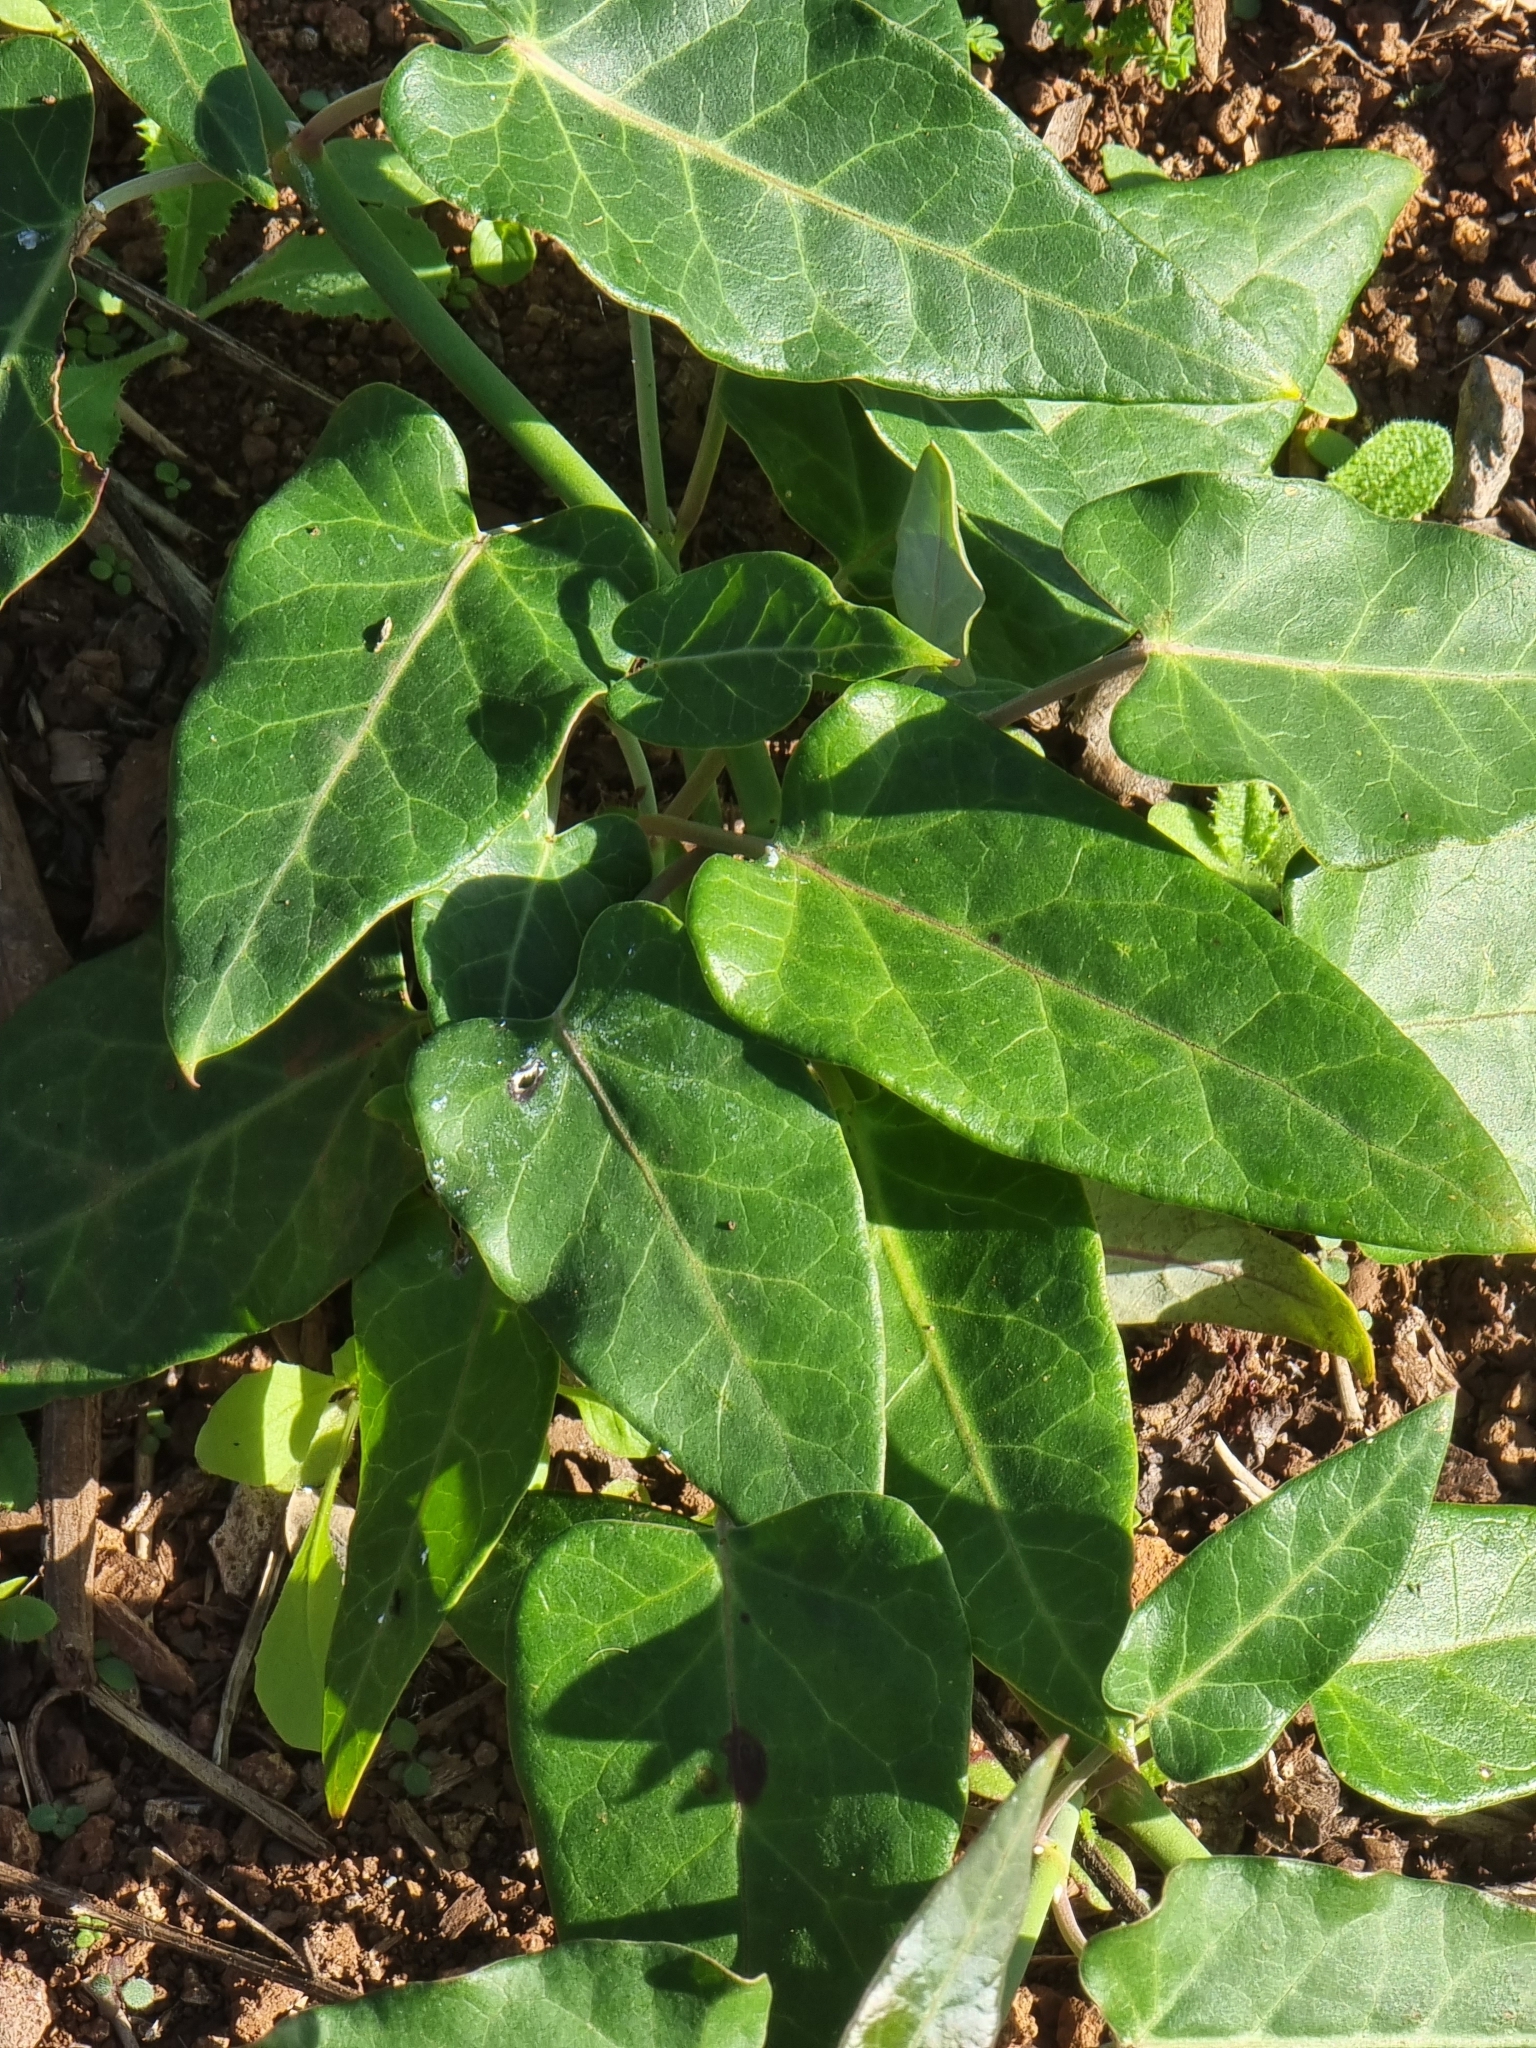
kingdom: Plantae
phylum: Tracheophyta
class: Magnoliopsida
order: Gentianales
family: Apocynaceae
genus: Araujia
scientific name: Araujia sericifera
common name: White bladderflower
